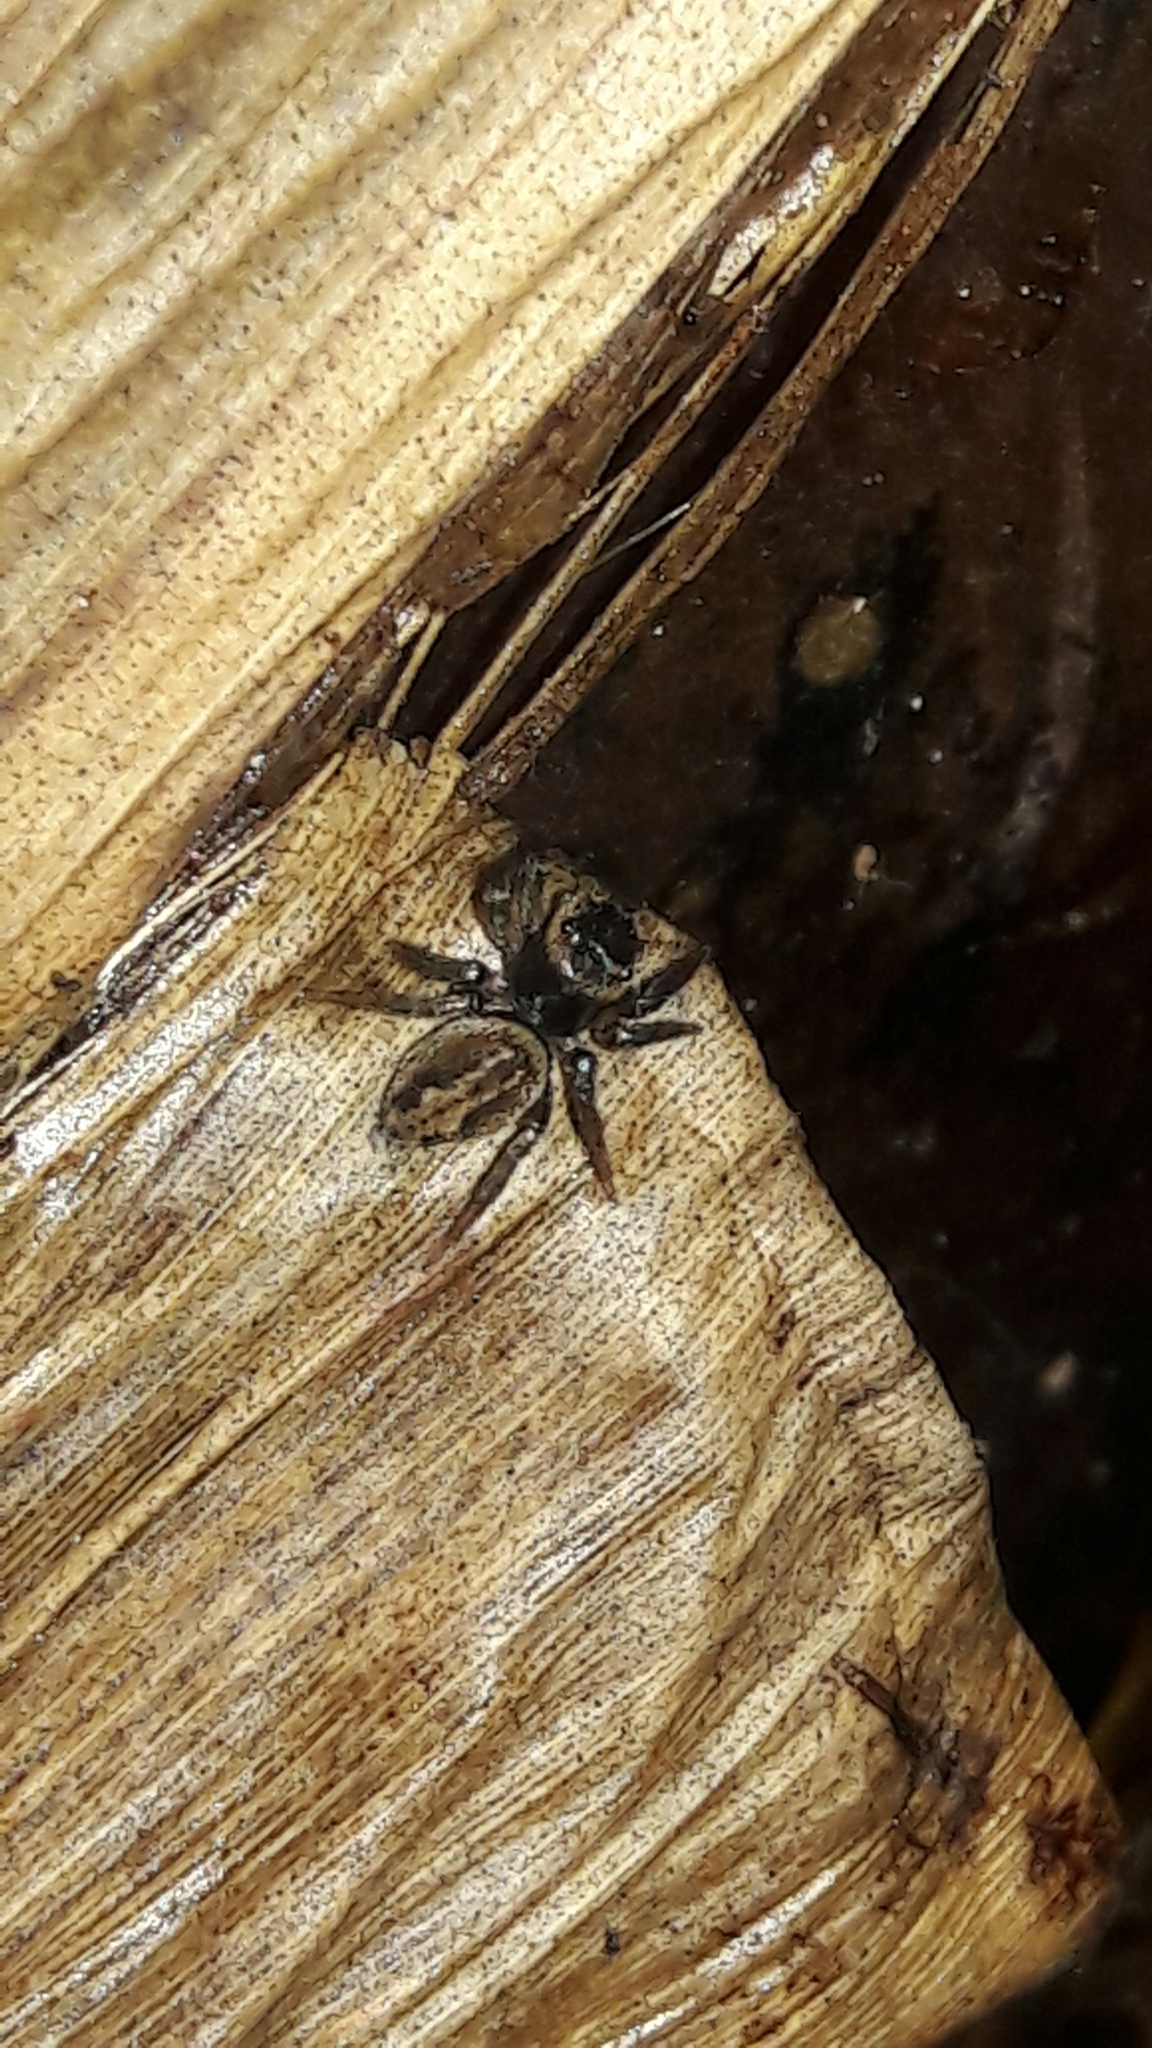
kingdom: Animalia
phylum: Arthropoda
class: Arachnida
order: Araneae
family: Salticidae
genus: Hasarius
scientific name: Hasarius adansoni
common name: Jumping spider
